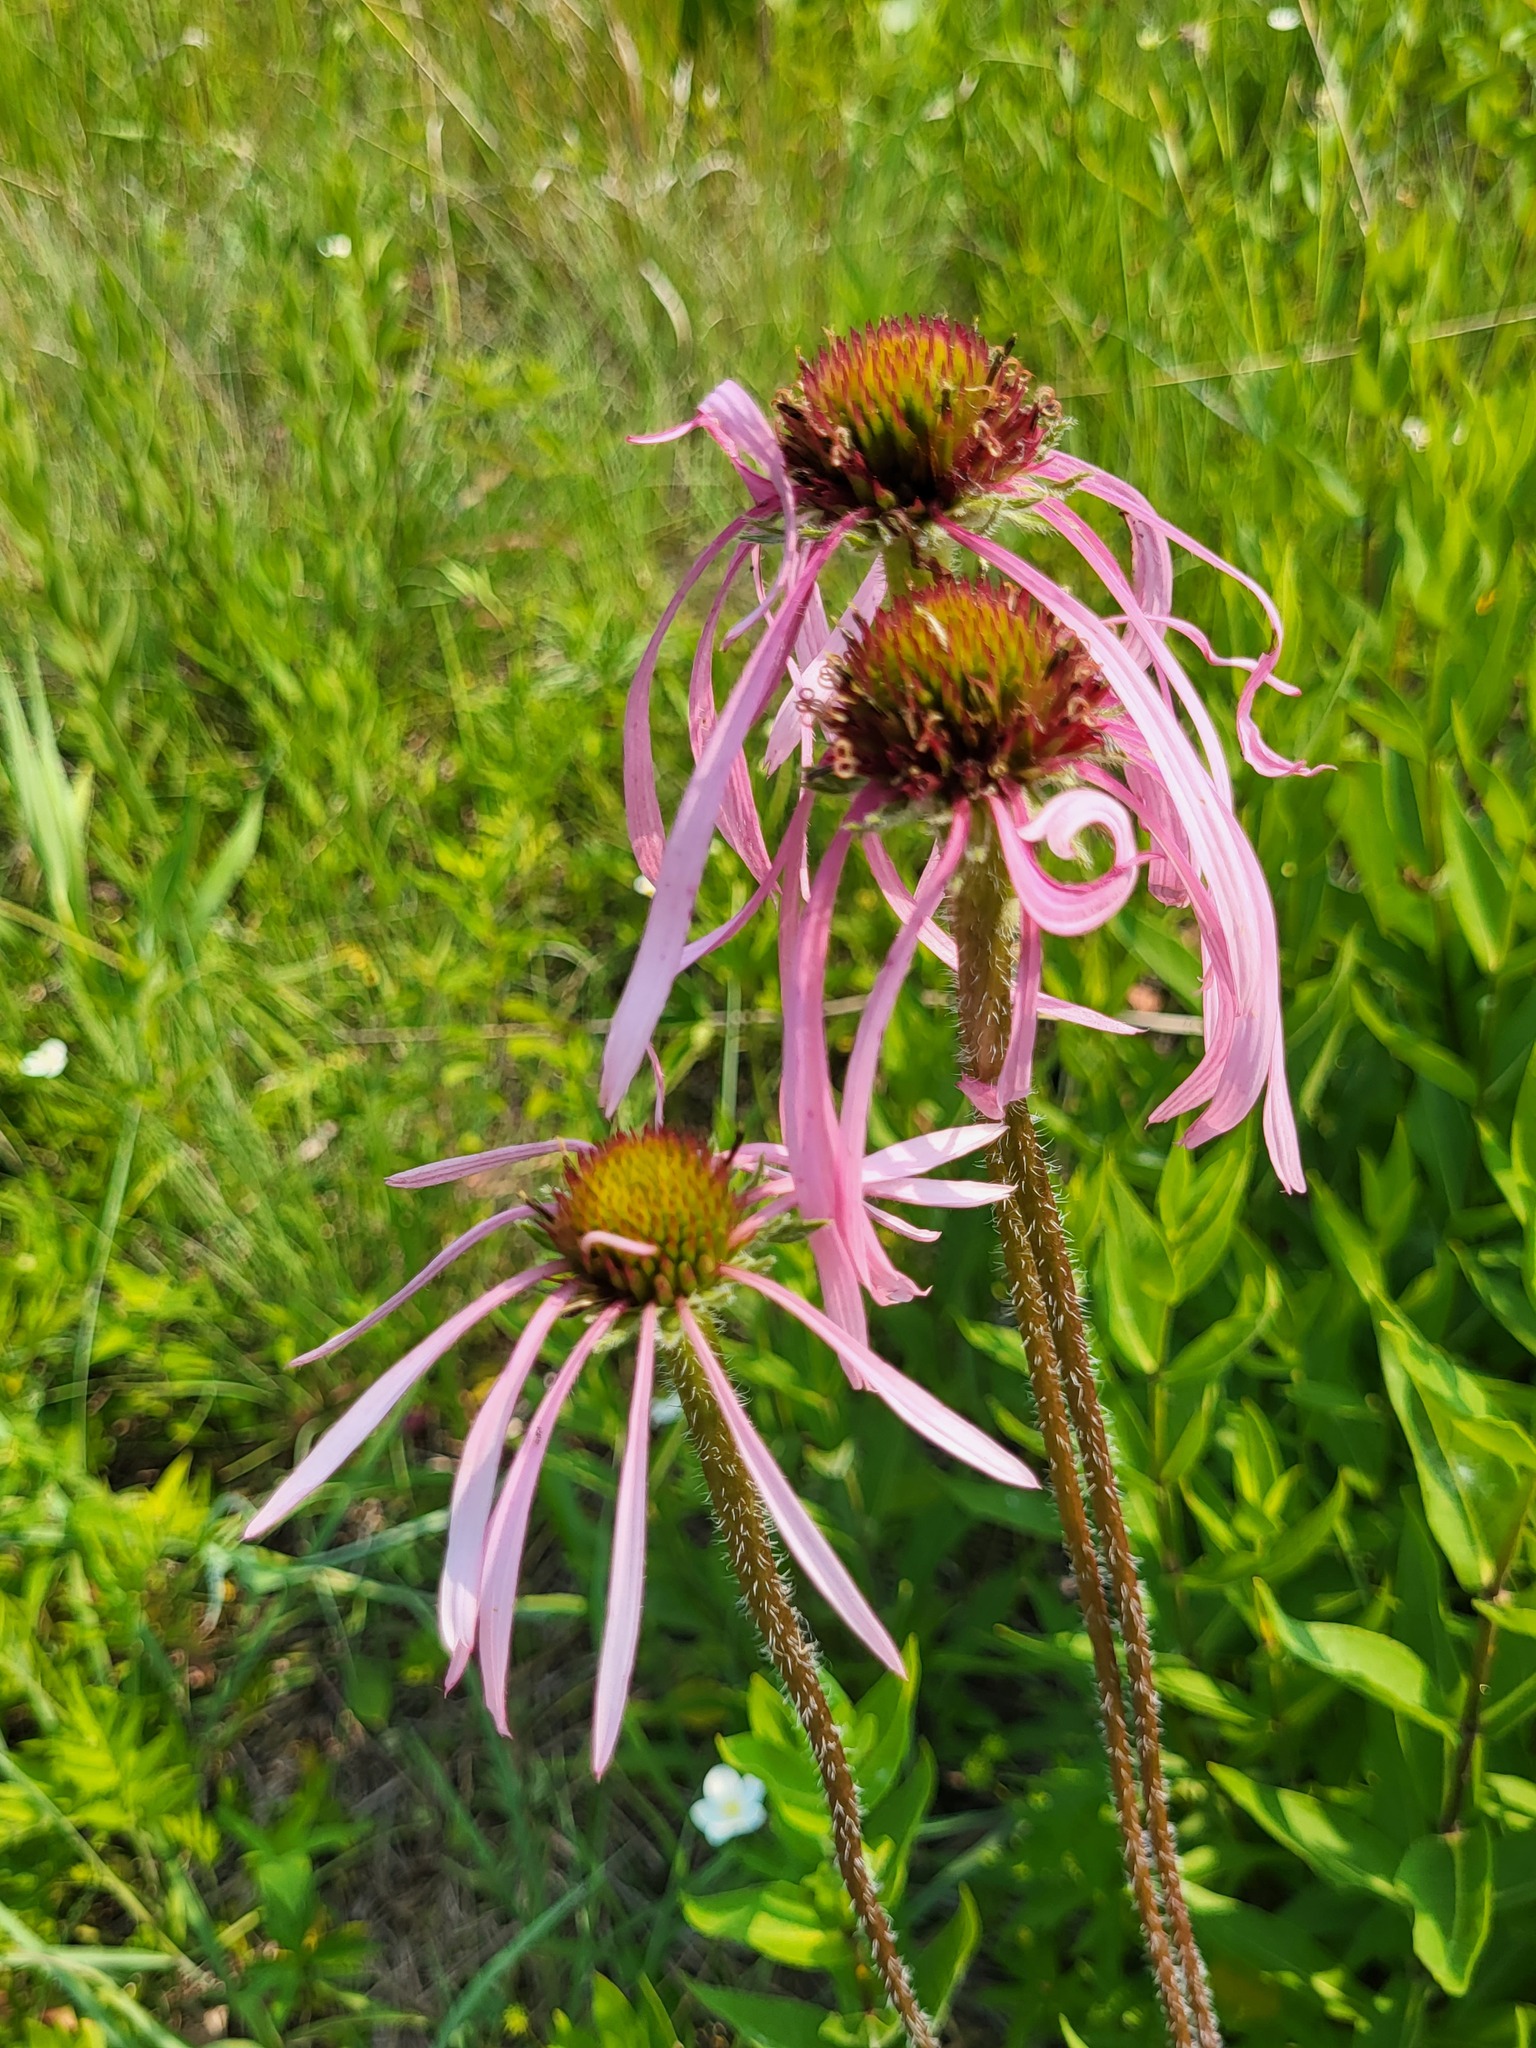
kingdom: Plantae
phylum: Tracheophyta
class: Magnoliopsida
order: Asterales
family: Asteraceae
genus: Echinacea
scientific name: Echinacea pallida
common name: Pale echinacea
